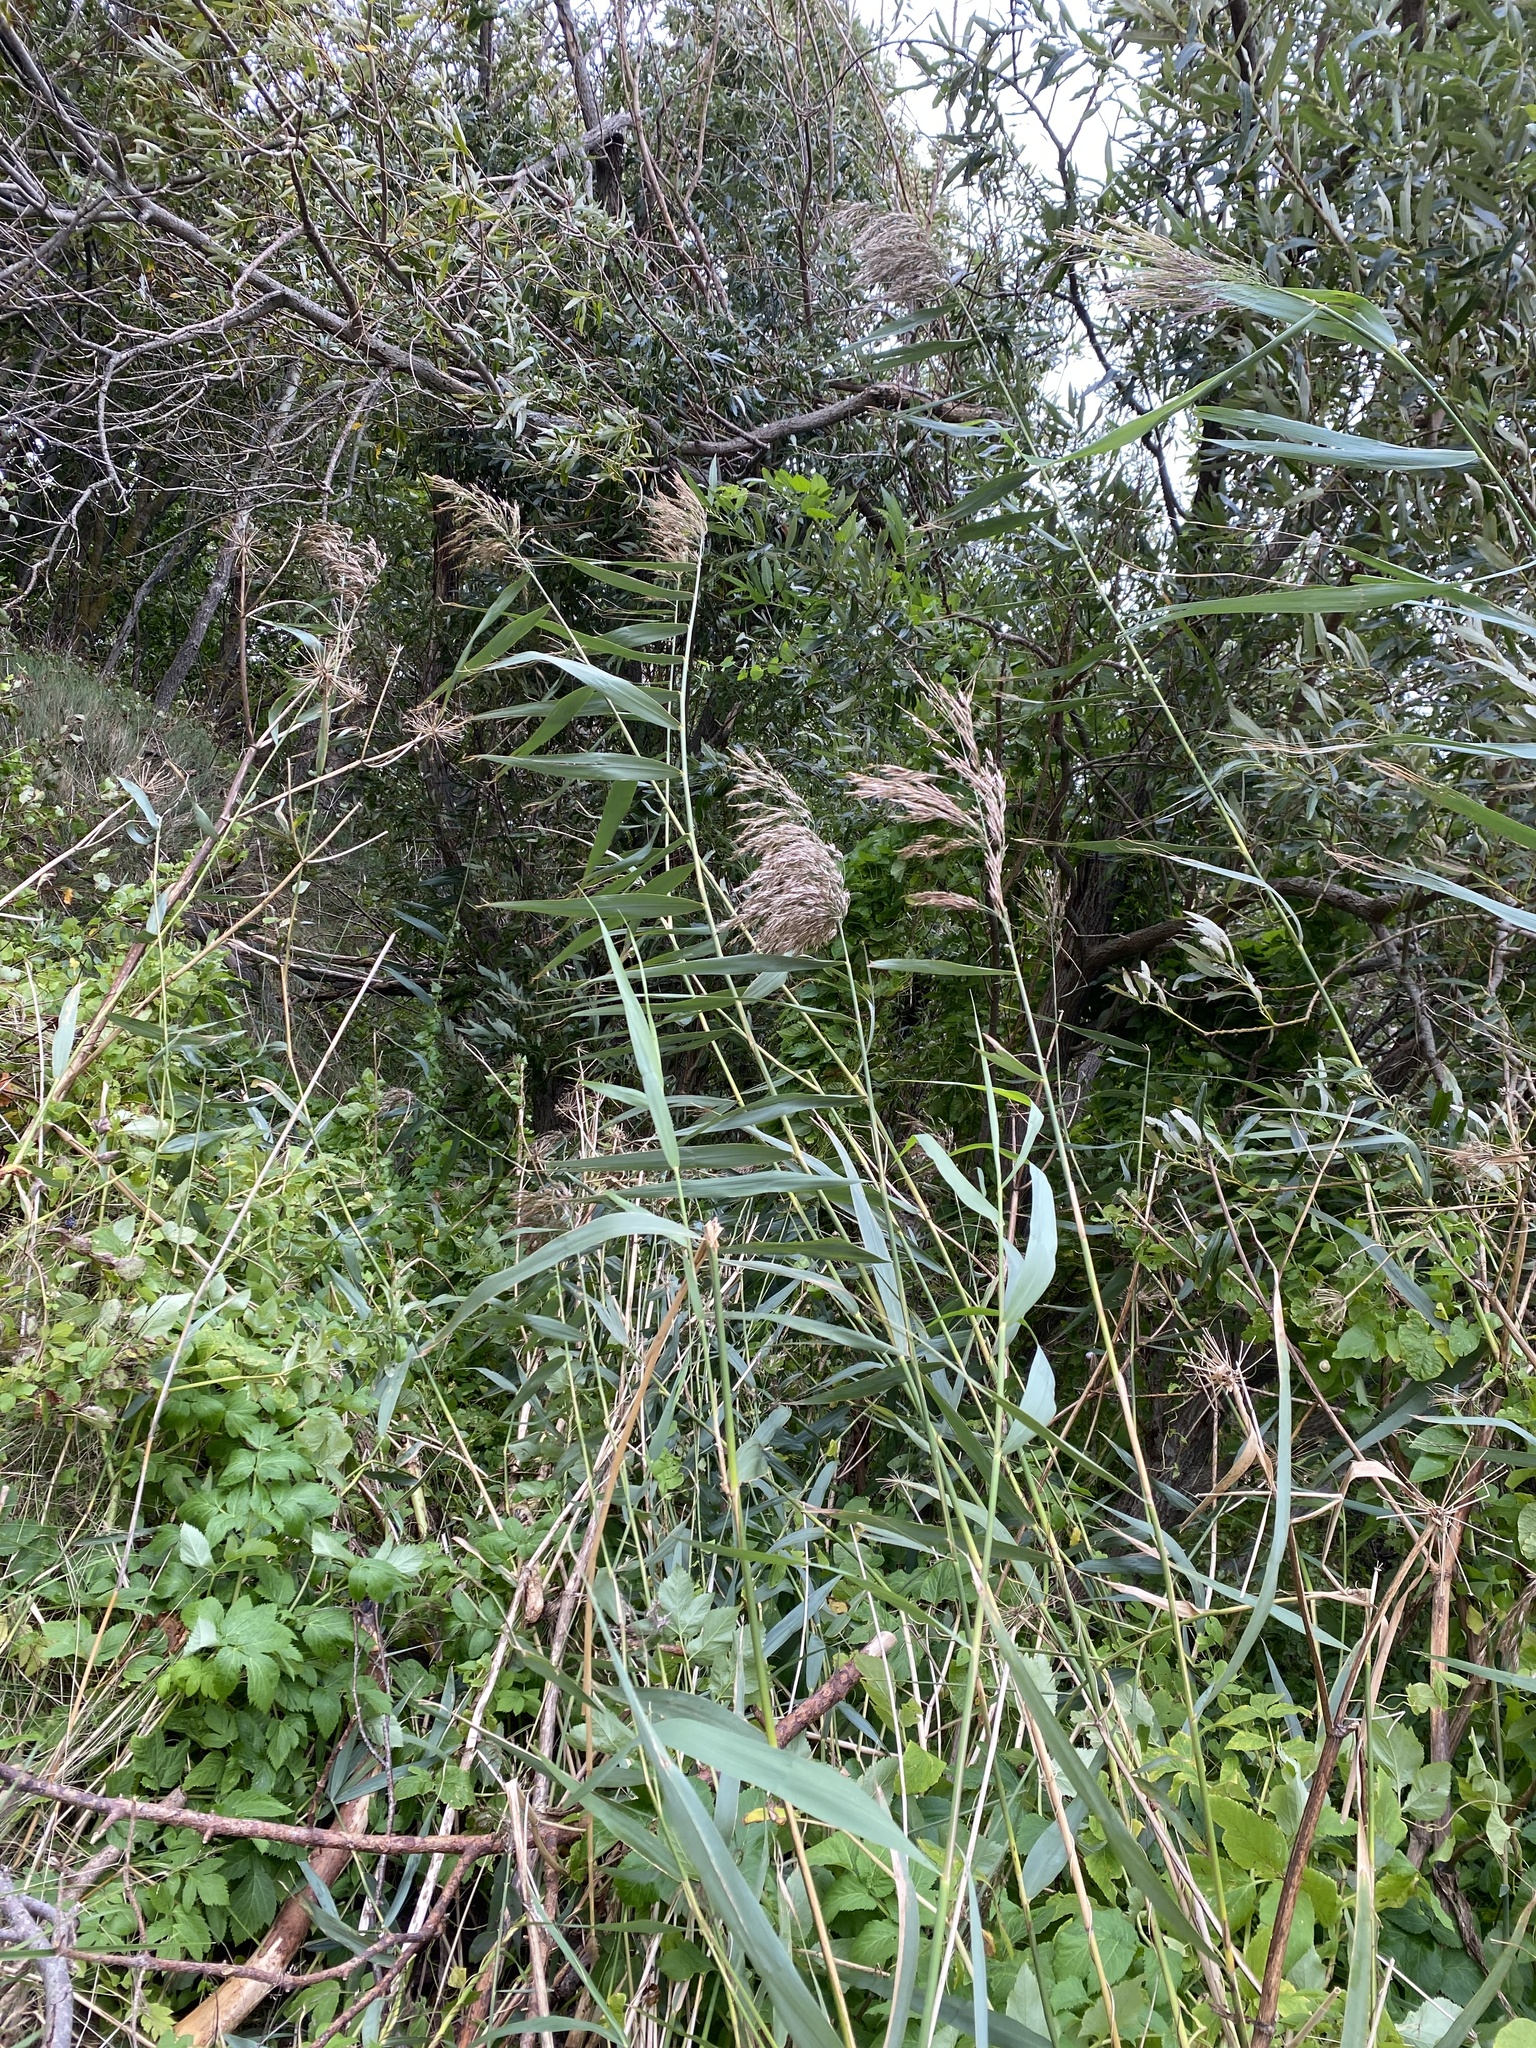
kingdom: Plantae
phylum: Tracheophyta
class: Liliopsida
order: Poales
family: Poaceae
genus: Phragmites
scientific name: Phragmites australis
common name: Common reed
